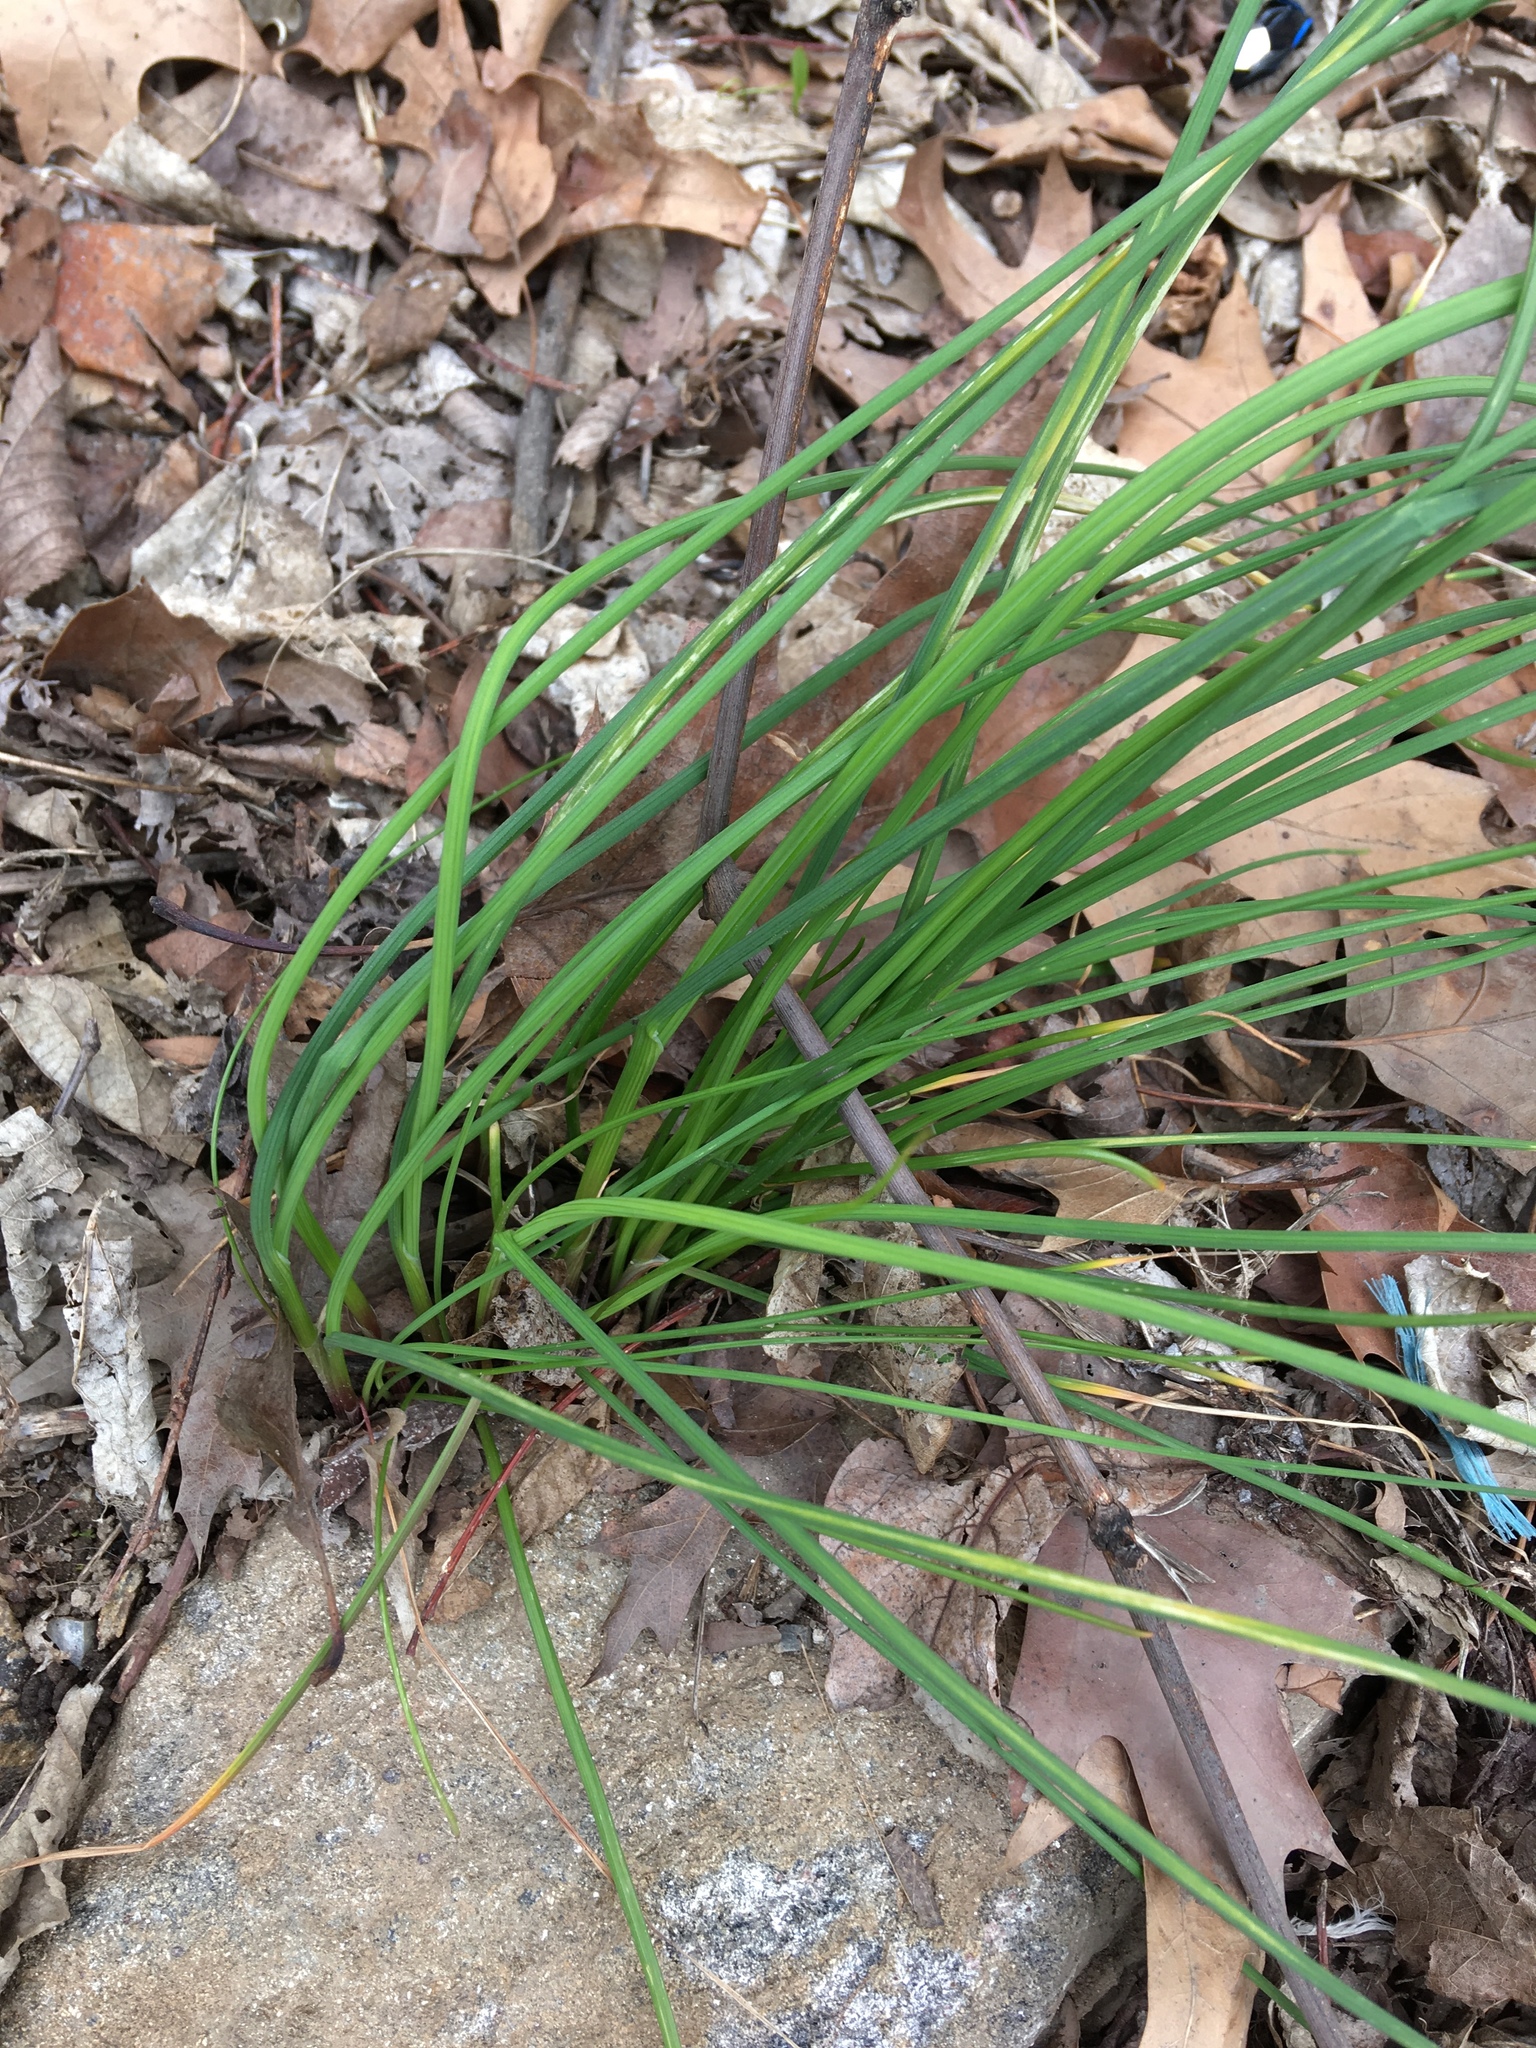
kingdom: Plantae
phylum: Tracheophyta
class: Liliopsida
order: Asparagales
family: Amaryllidaceae
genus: Allium
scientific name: Allium vineale
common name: Crow garlic
